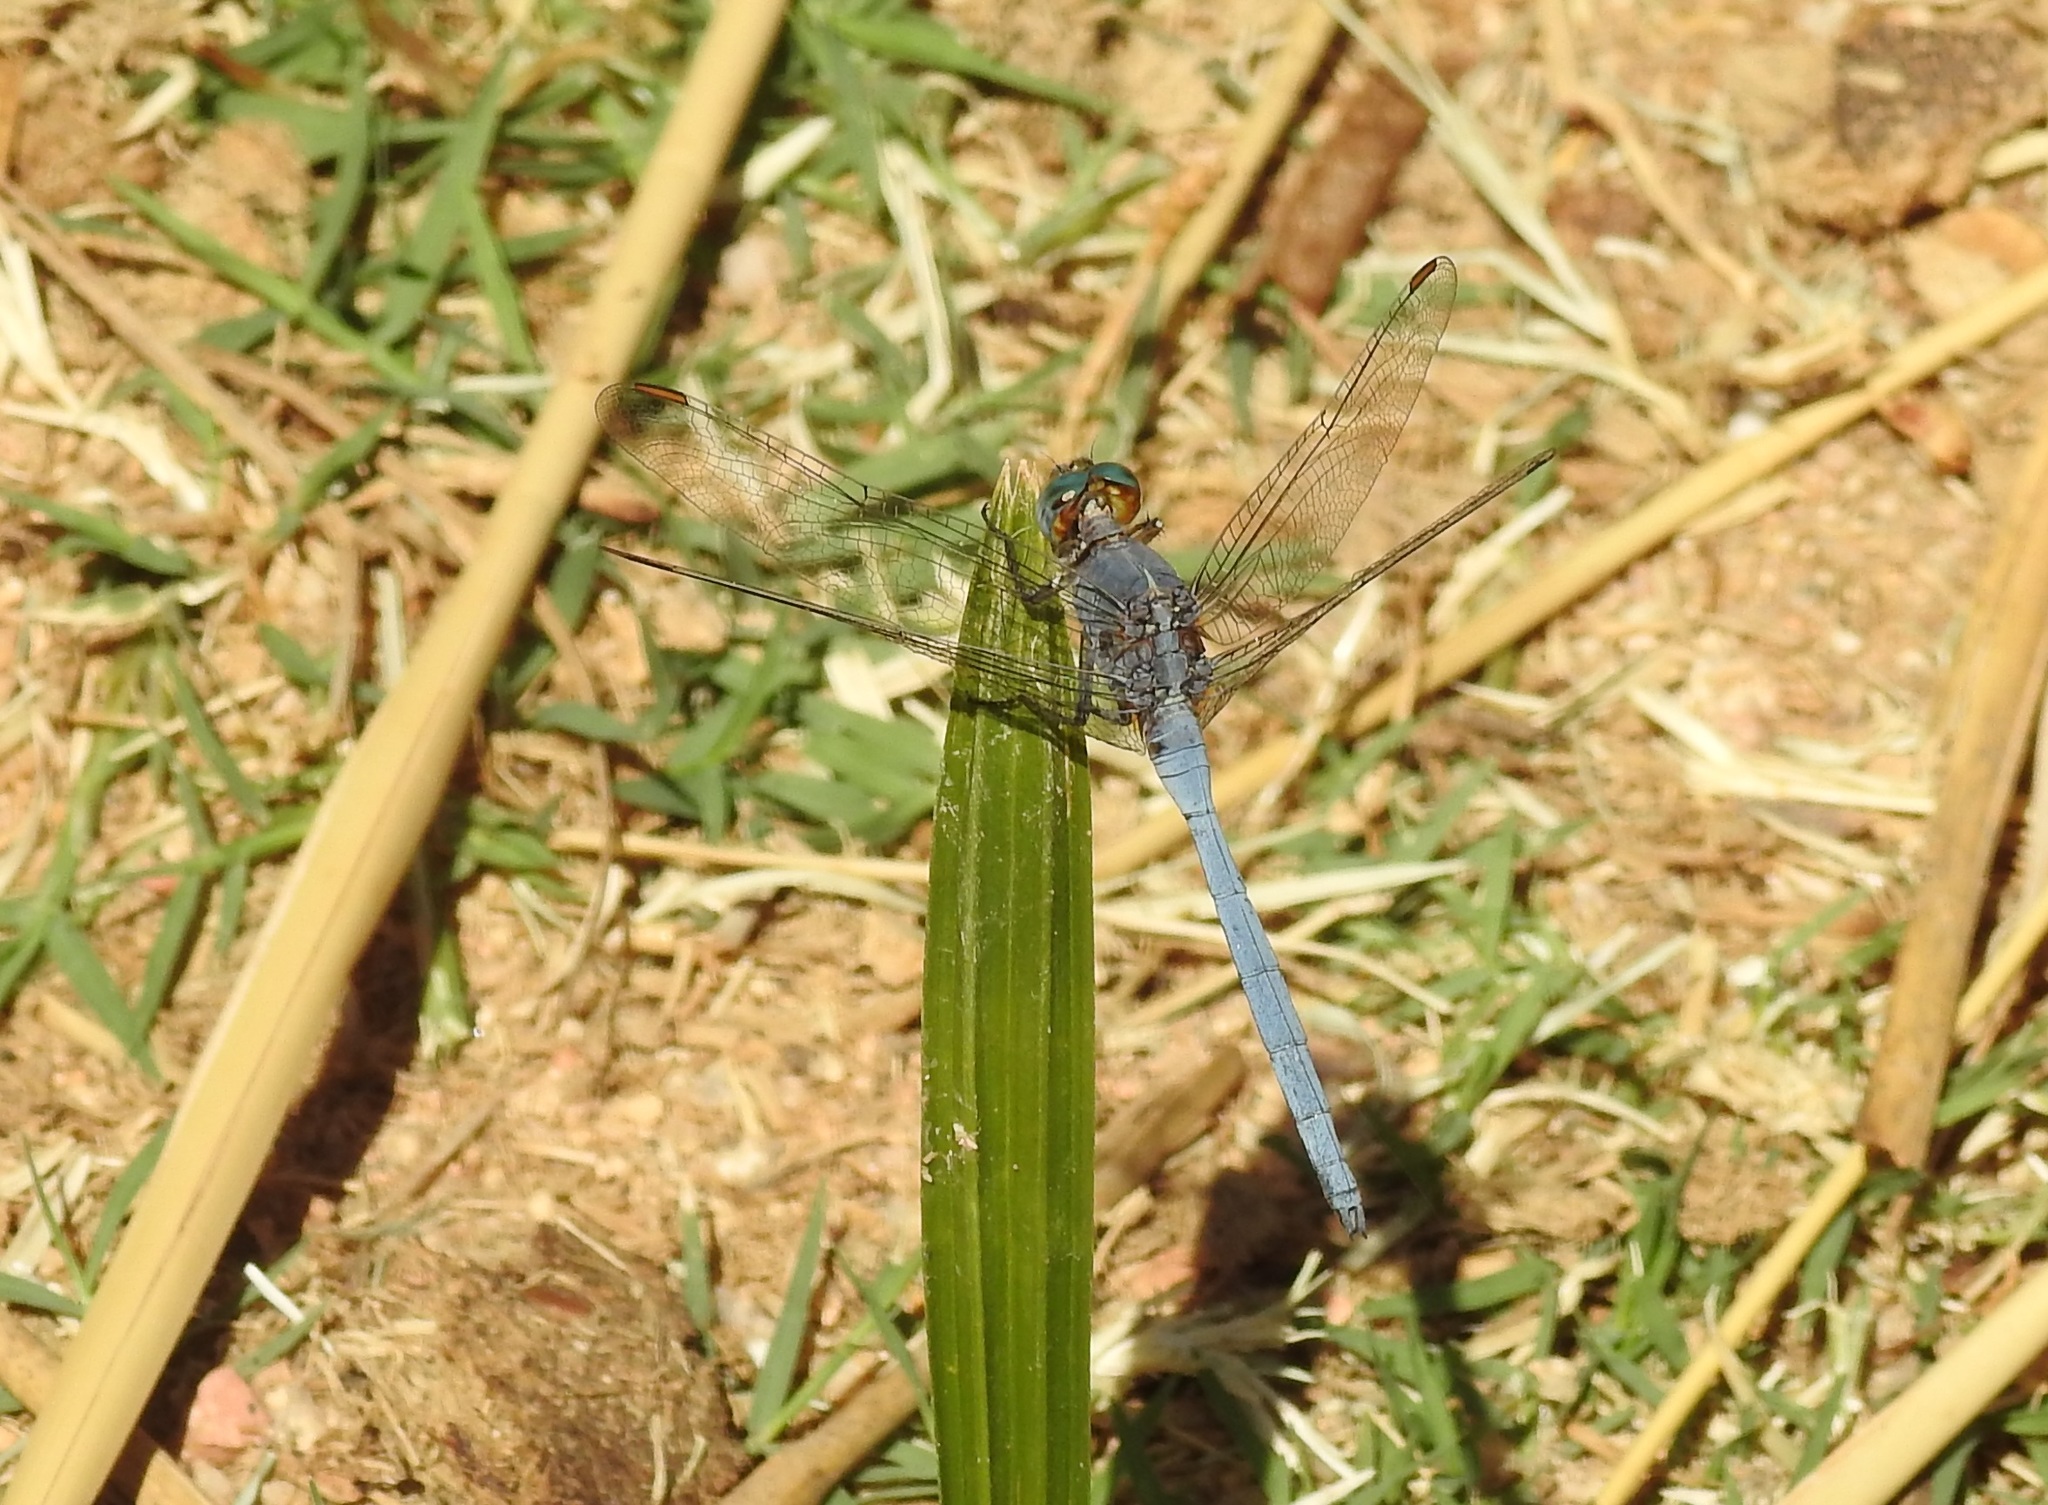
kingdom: Animalia
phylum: Arthropoda
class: Insecta
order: Odonata
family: Libellulidae
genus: Orthetrum
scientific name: Orthetrum chrysostigma
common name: Epaulet skimmer
